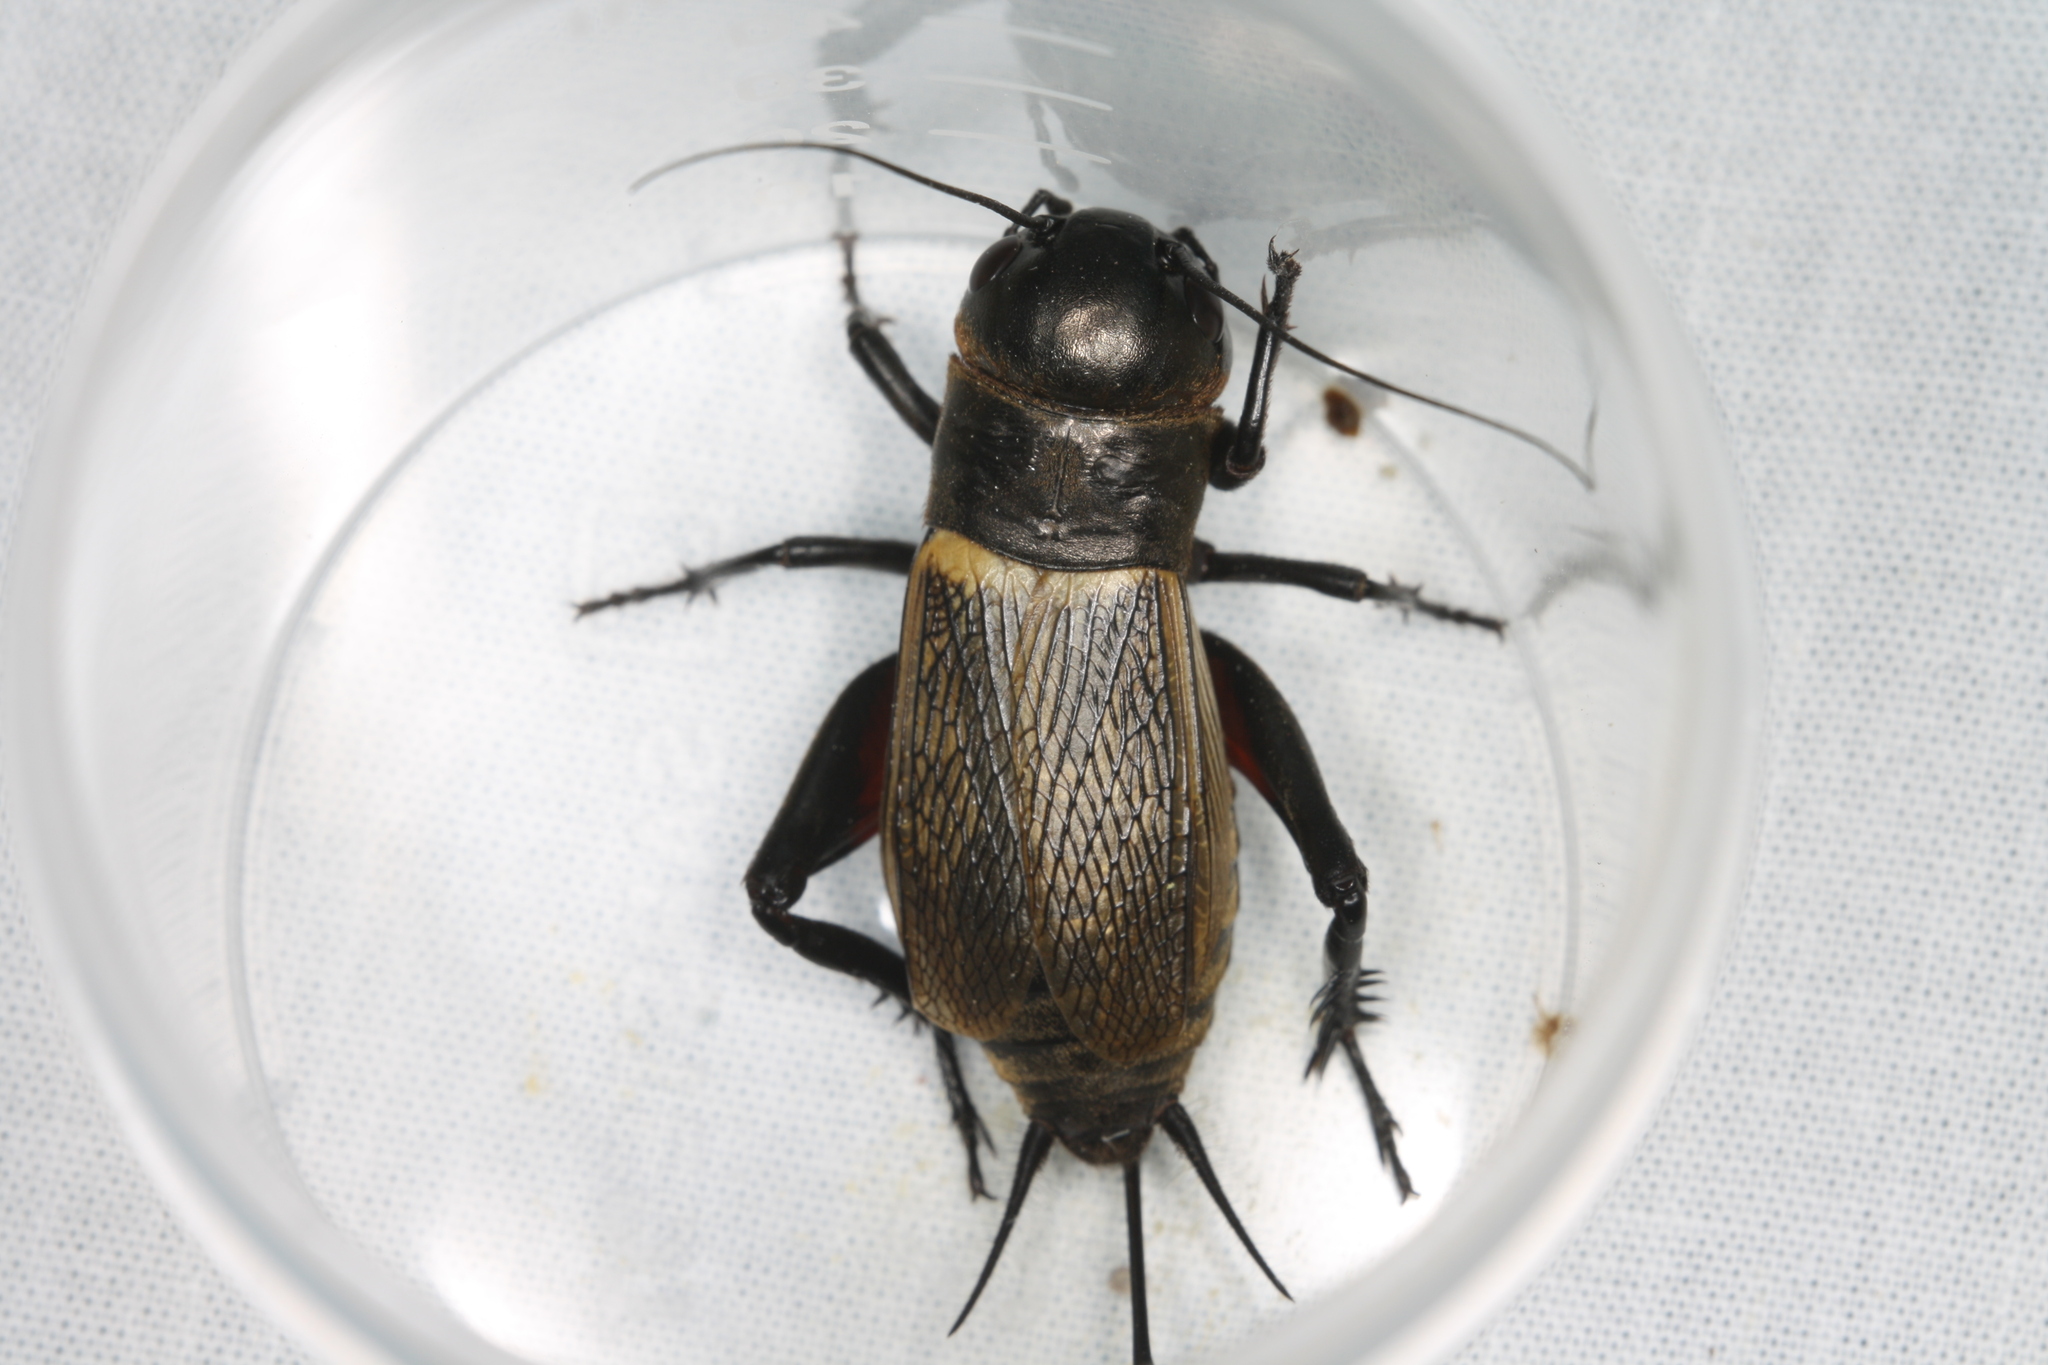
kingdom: Animalia
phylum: Arthropoda
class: Insecta
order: Orthoptera
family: Gryllidae
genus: Gryllus
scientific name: Gryllus campestris
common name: Field cricket
